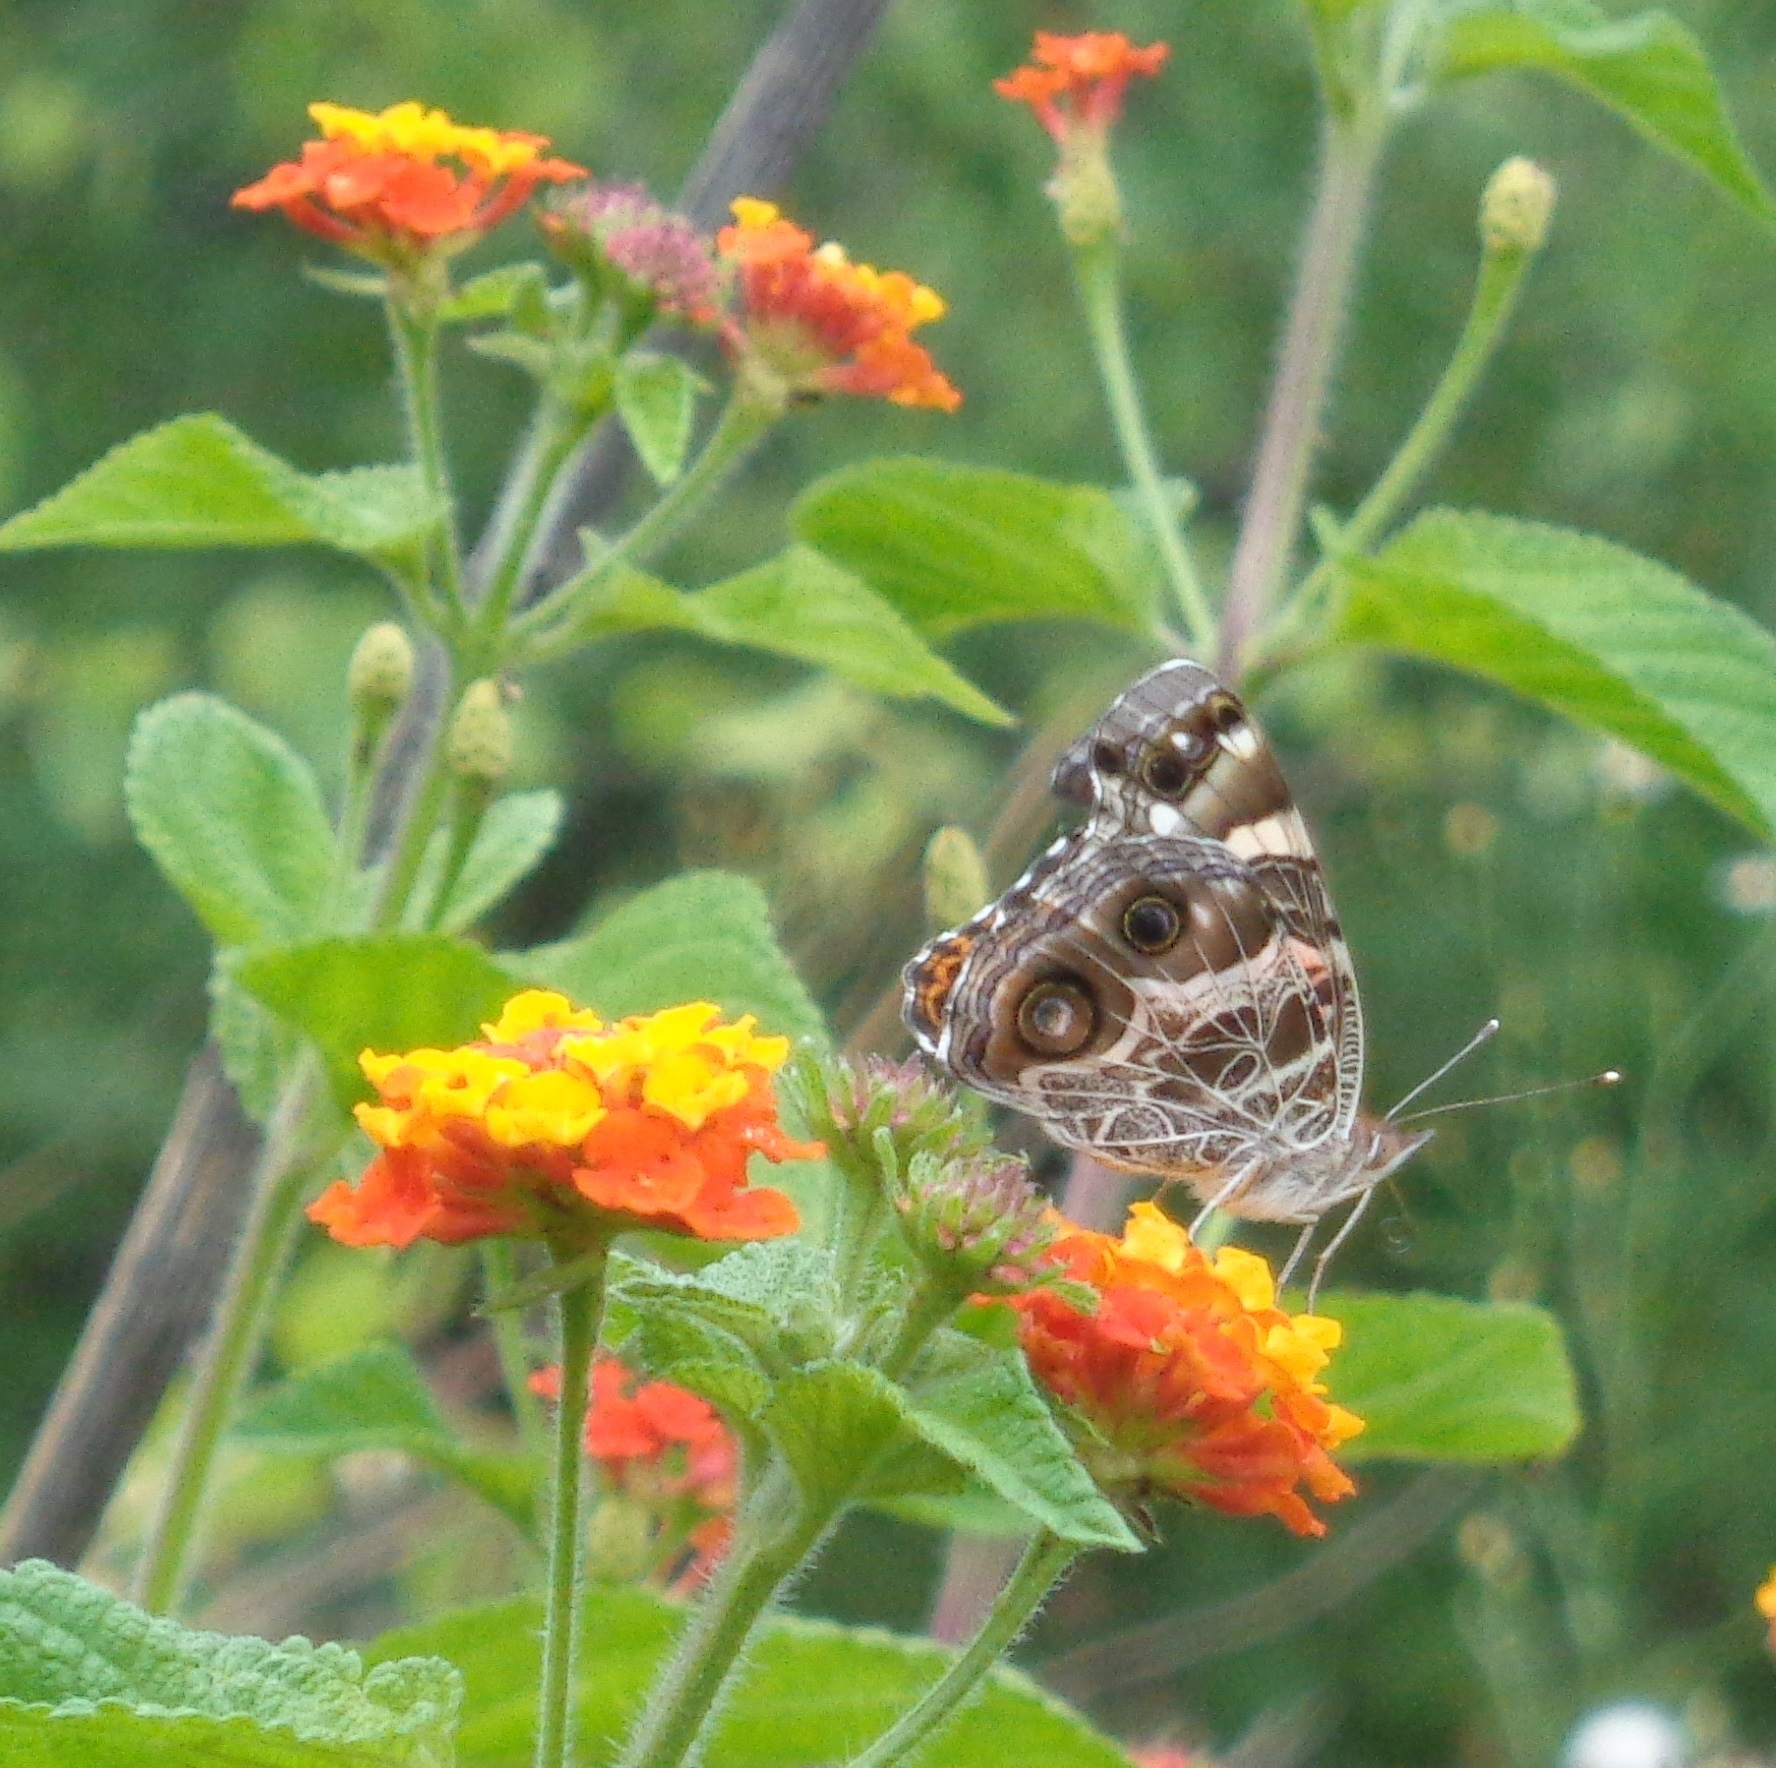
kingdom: Animalia
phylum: Arthropoda
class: Insecta
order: Lepidoptera
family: Nymphalidae
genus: Vanessa
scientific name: Vanessa virginiensis
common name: American lady
